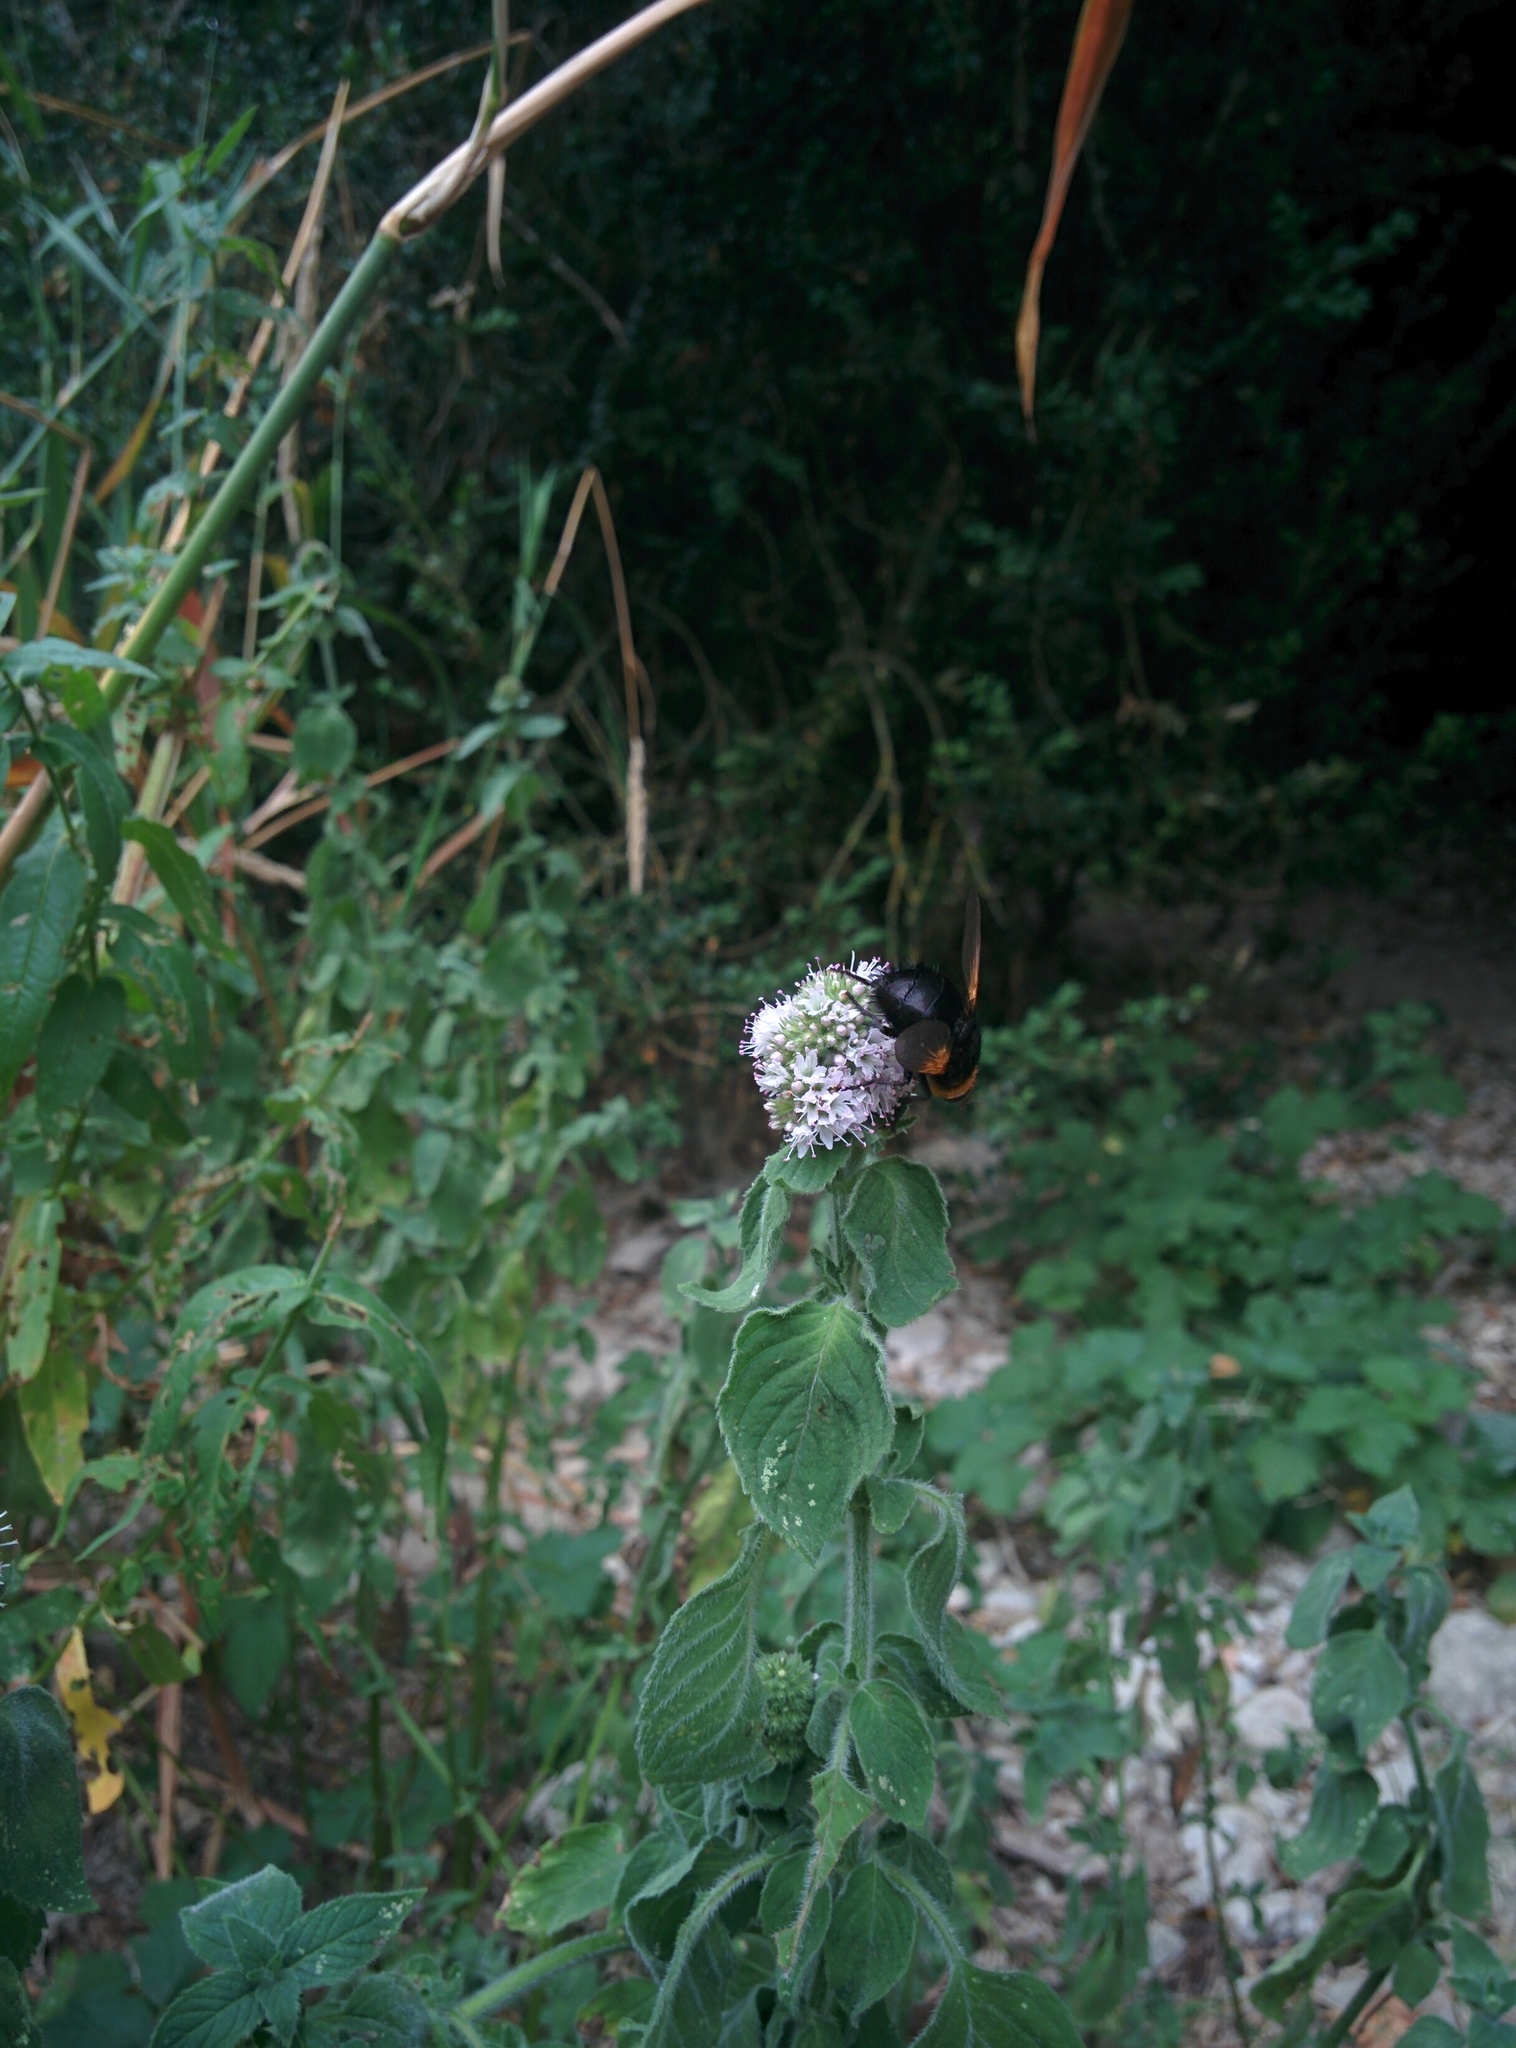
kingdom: Animalia
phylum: Arthropoda
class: Insecta
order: Diptera
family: Tachinidae
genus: Tachina
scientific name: Tachina grossa
